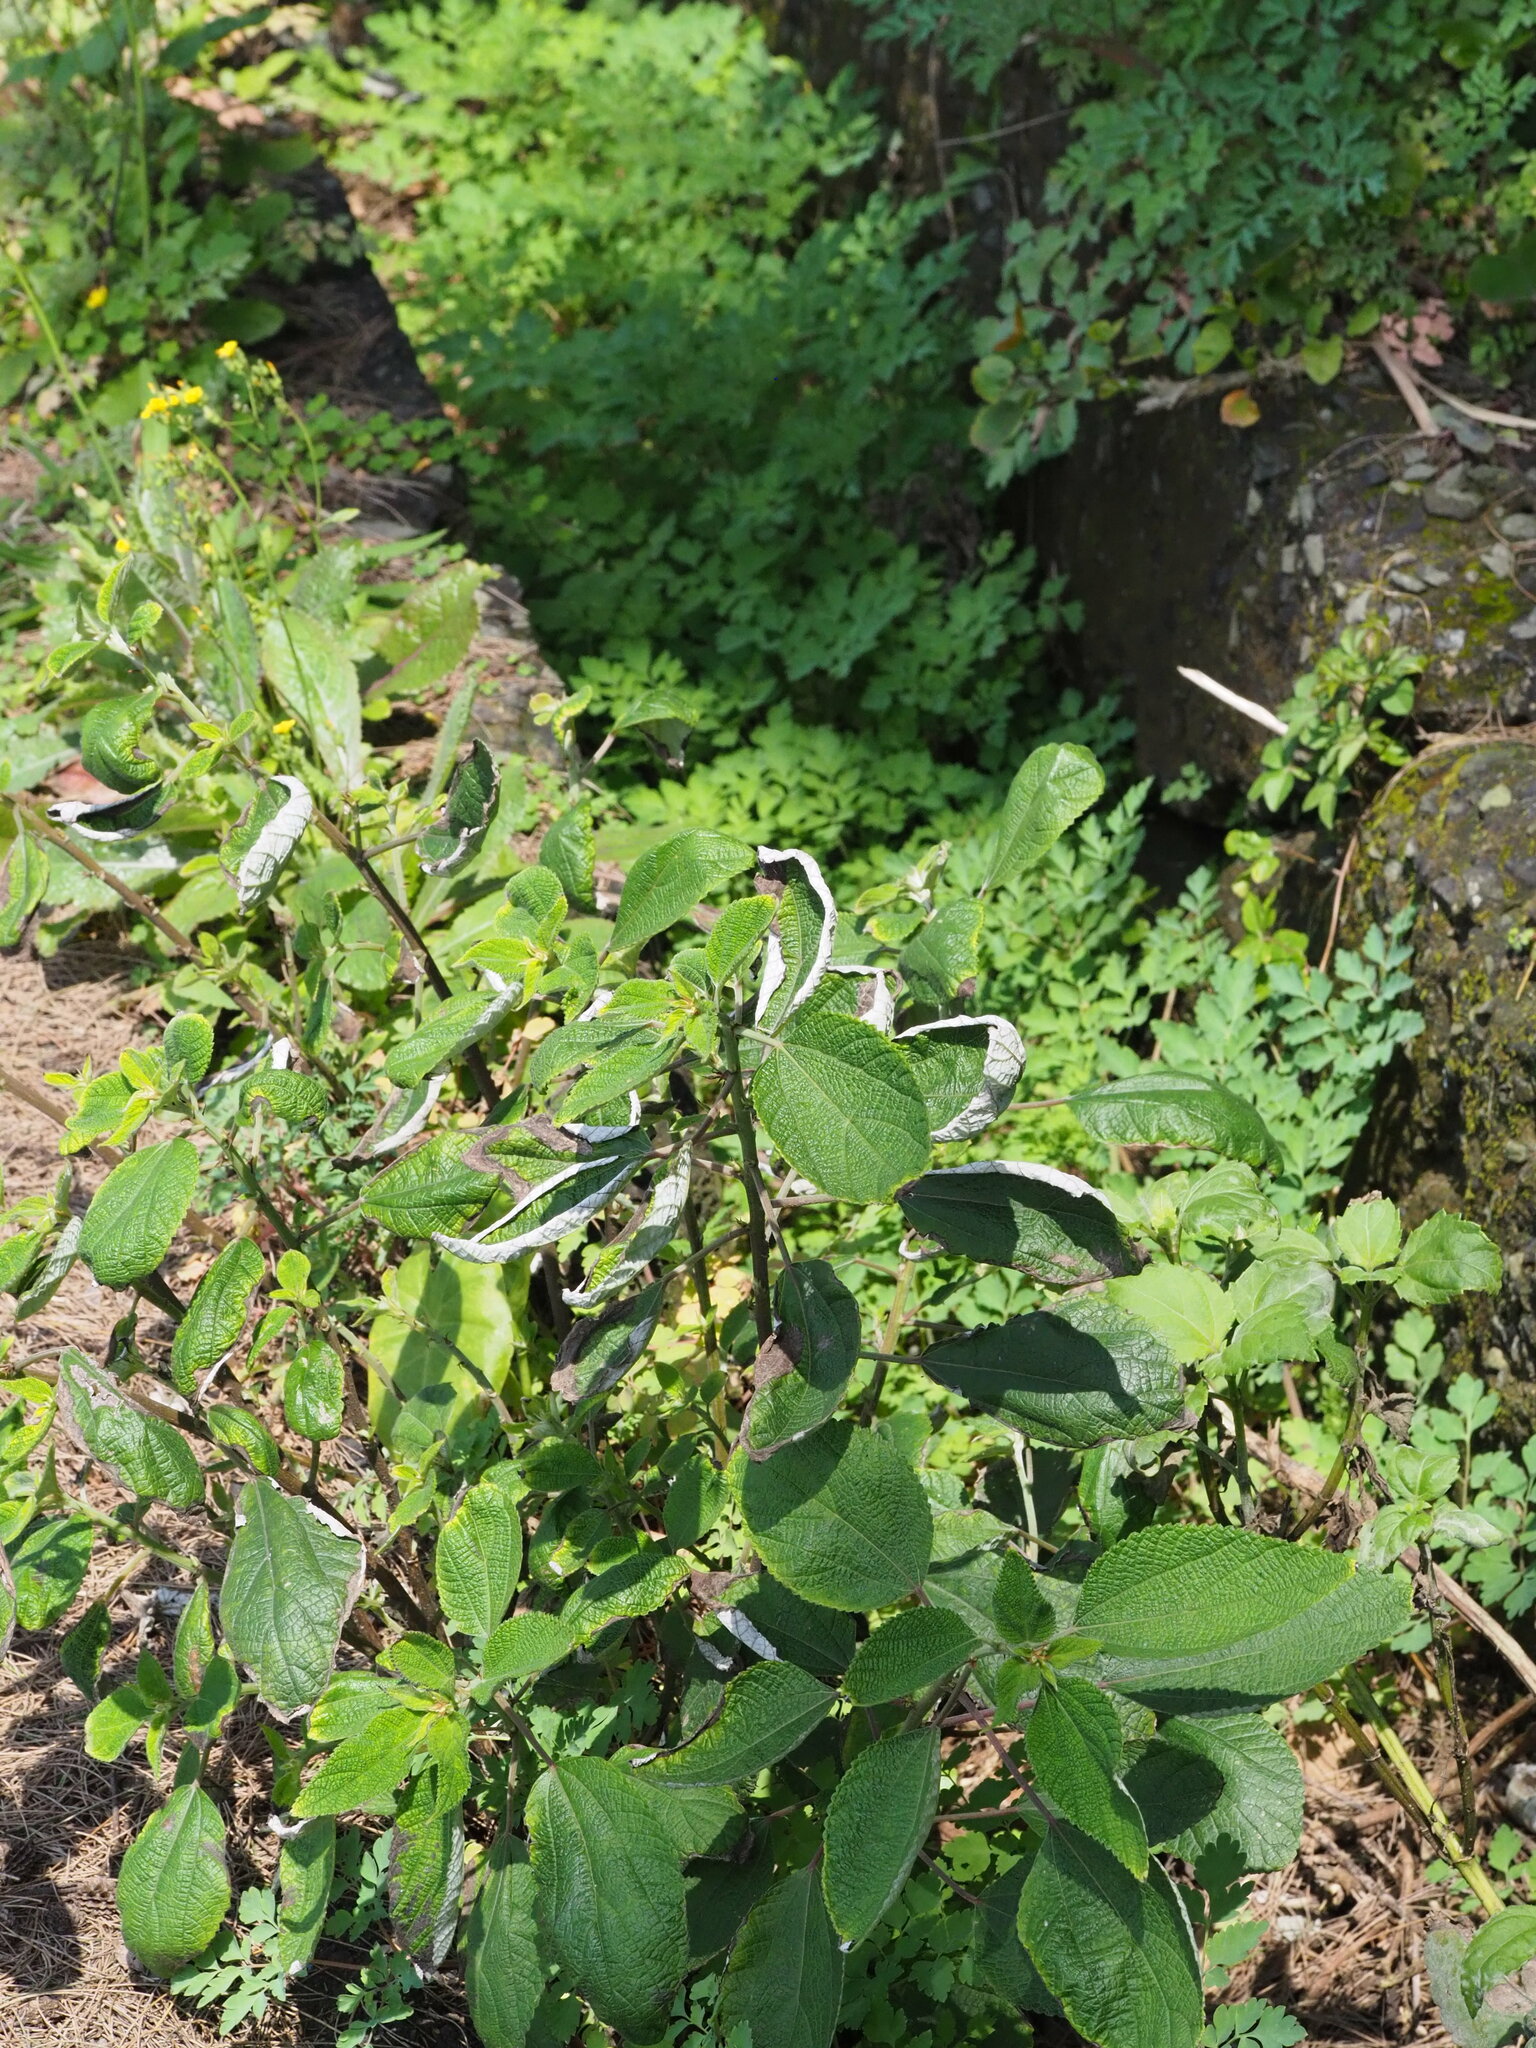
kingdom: Plantae
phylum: Tracheophyta
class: Magnoliopsida
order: Rosales
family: Urticaceae
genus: Boehmeria
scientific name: Boehmeria nivea
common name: Ramie chinese grass
